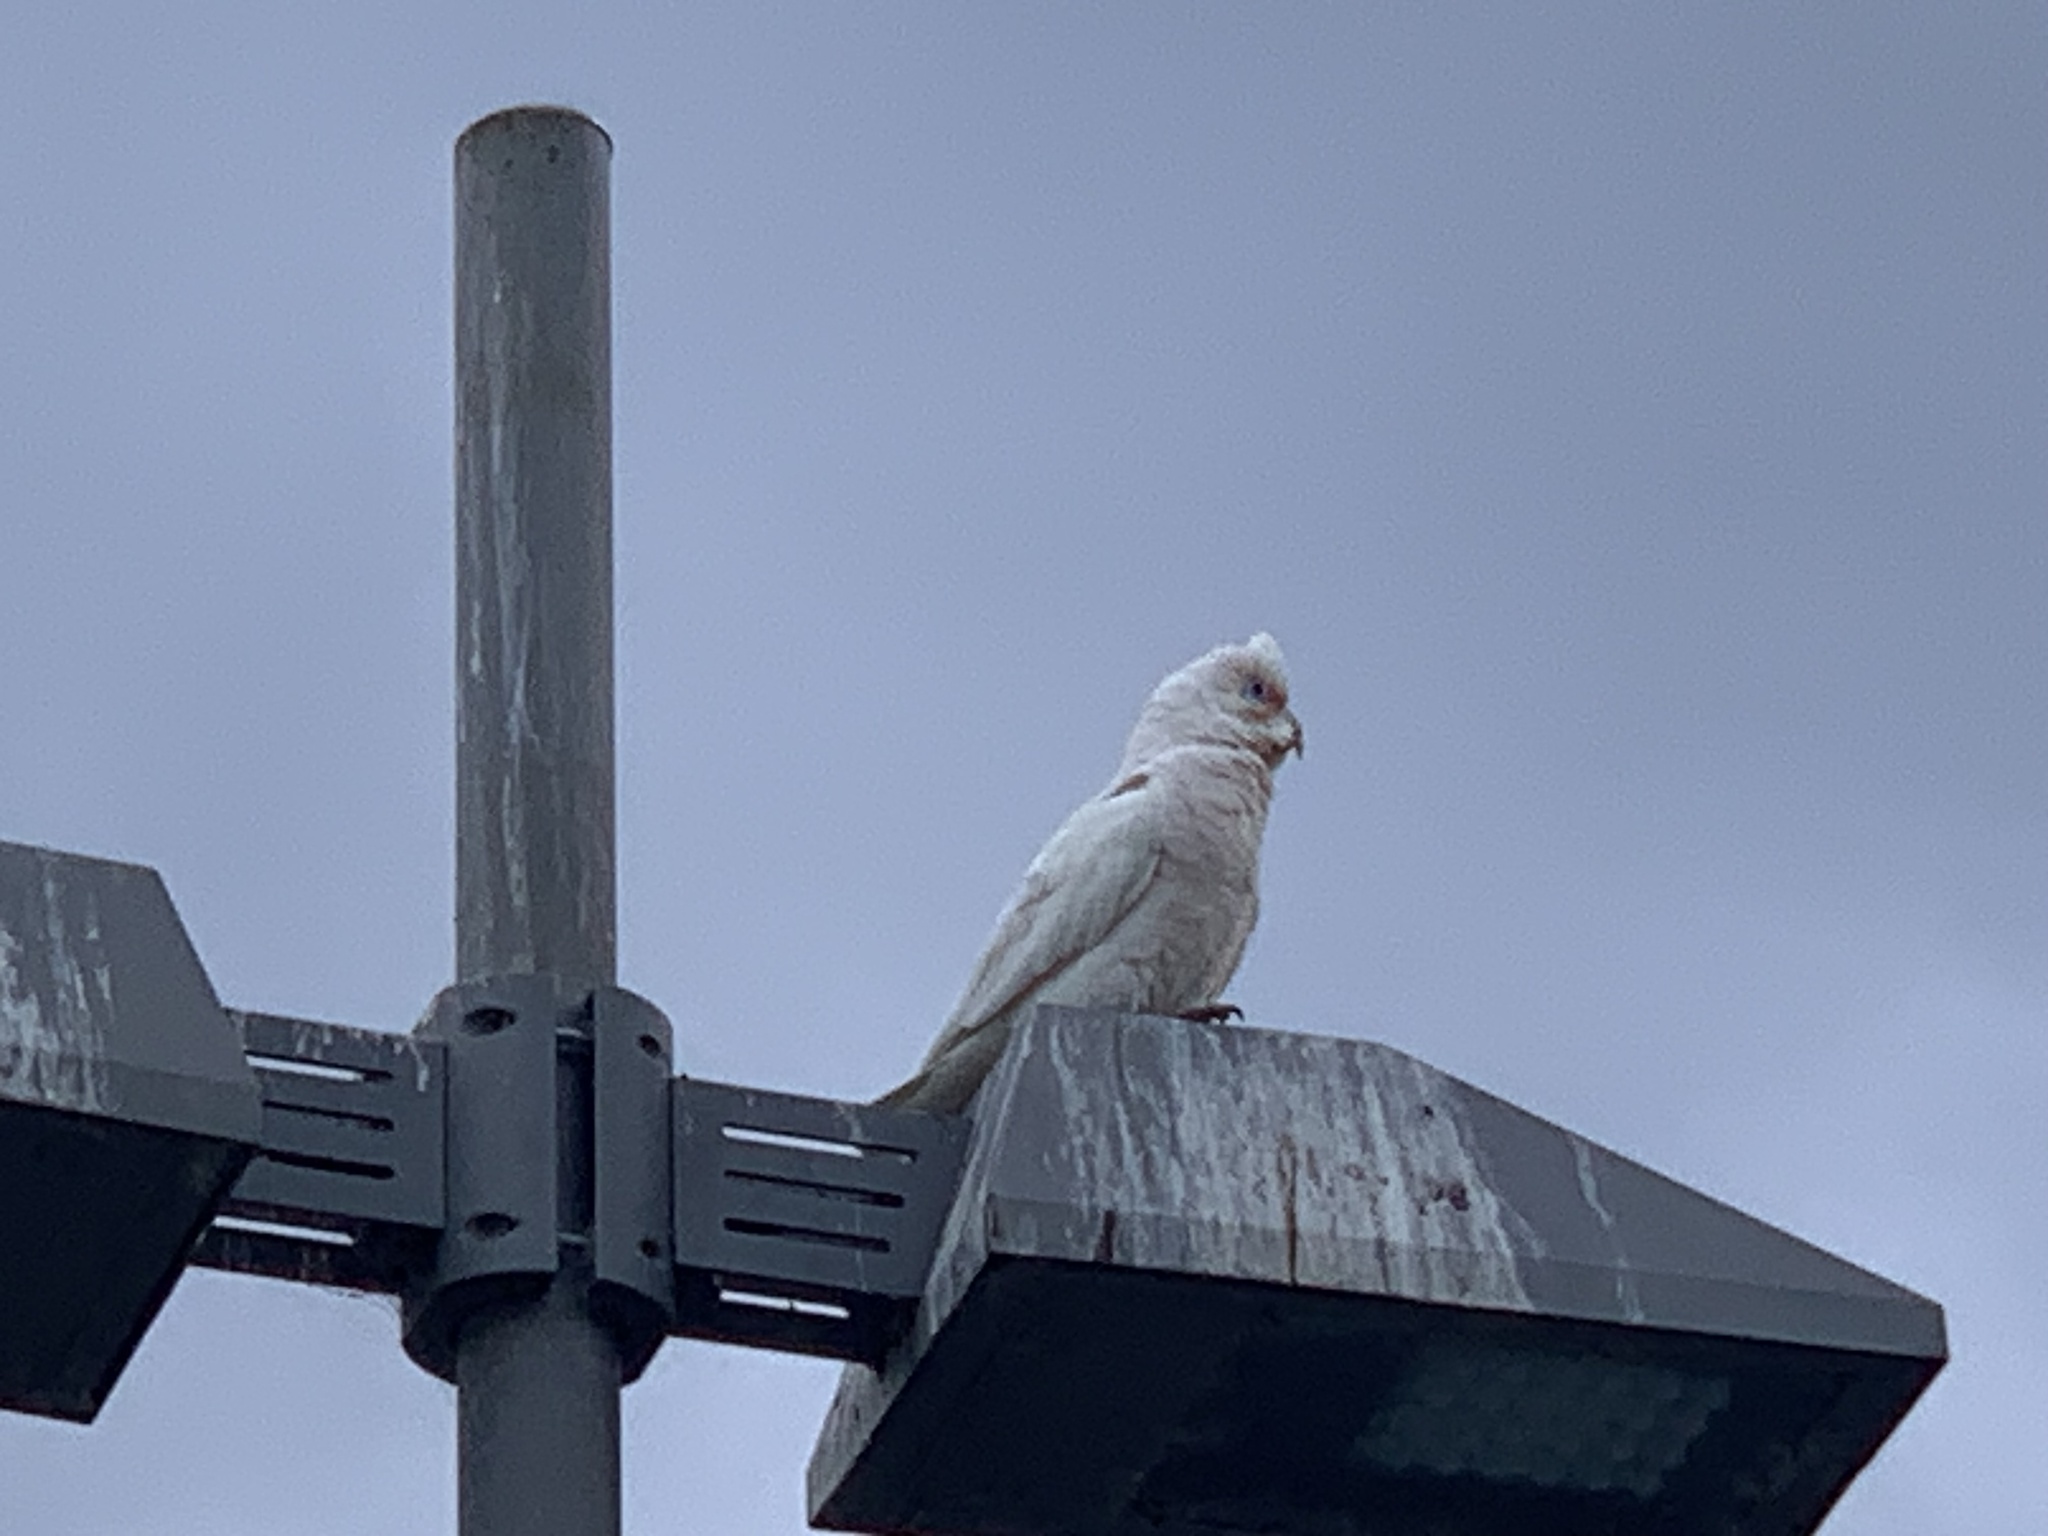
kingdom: Animalia
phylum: Chordata
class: Aves
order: Psittaciformes
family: Psittacidae
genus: Cacatua
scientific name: Cacatua tenuirostris
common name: Long-billed corella
